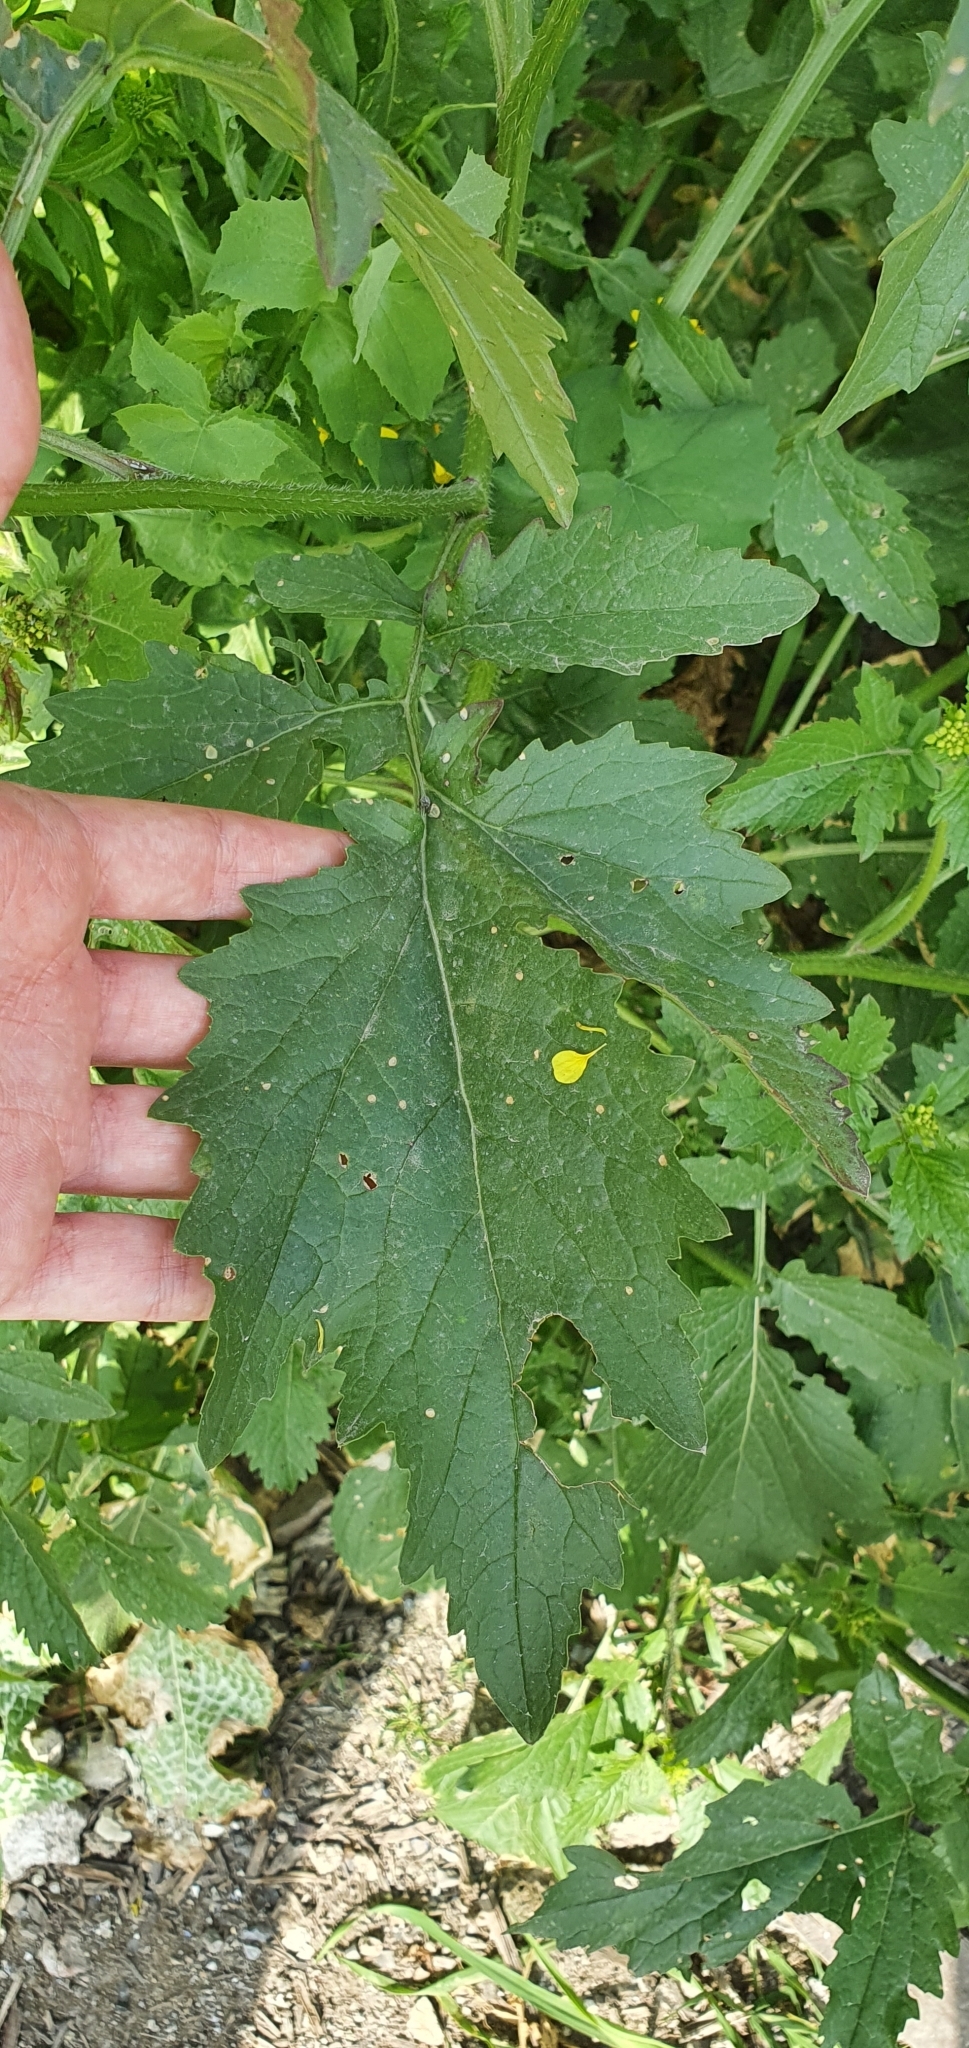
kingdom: Plantae
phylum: Tracheophyta
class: Magnoliopsida
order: Brassicales
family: Brassicaceae
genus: Sinapis
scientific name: Sinapis alba
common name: White mustard
